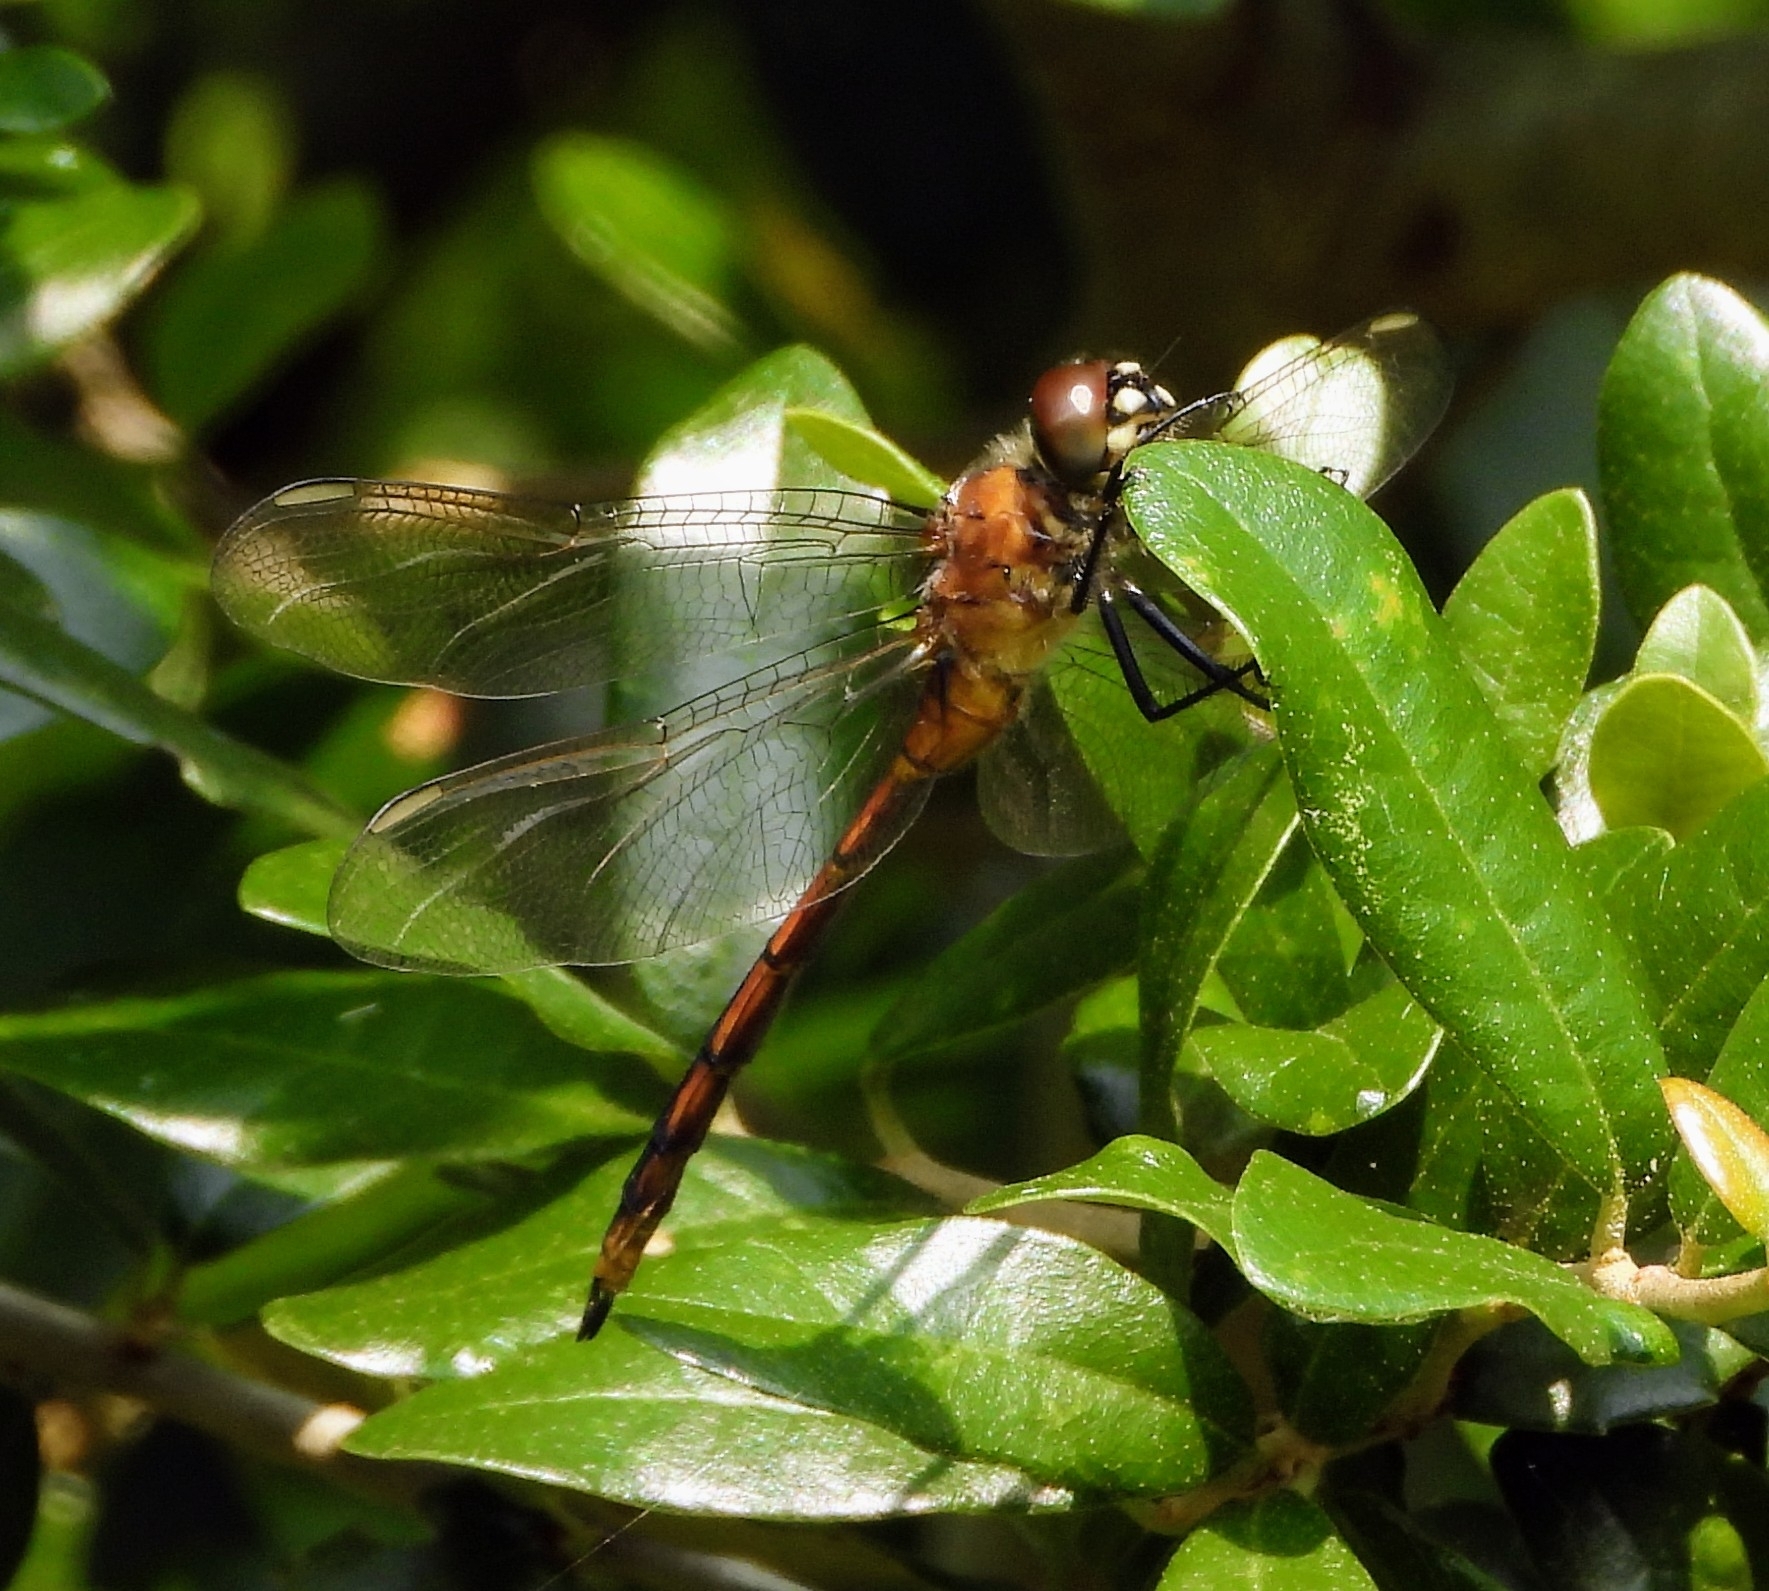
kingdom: Animalia
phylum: Arthropoda
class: Insecta
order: Odonata
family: Libellulidae
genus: Brachymesia
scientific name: Brachymesia gravida
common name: Four-spotted pennant
